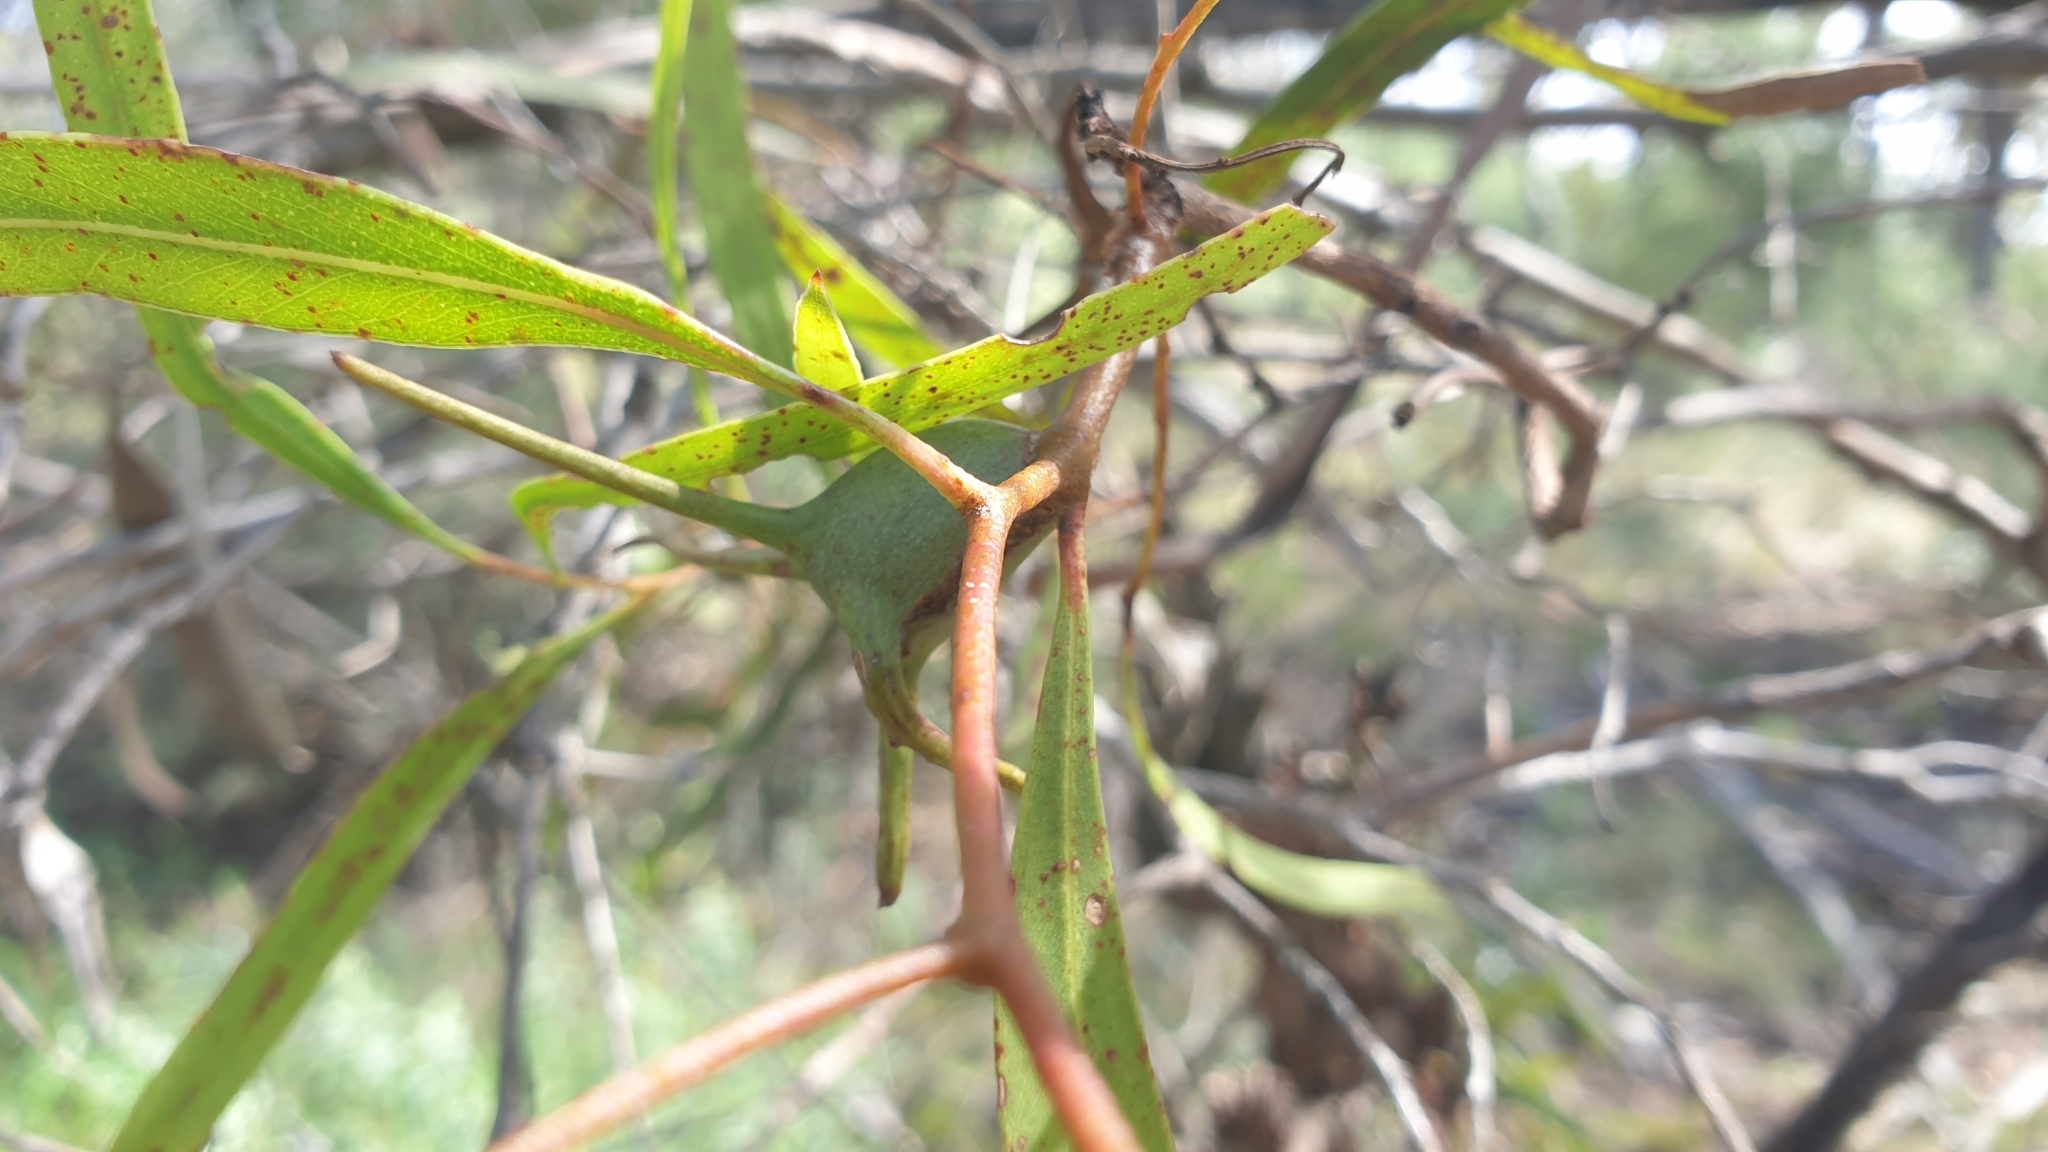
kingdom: Animalia
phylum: Arthropoda
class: Insecta
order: Hemiptera
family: Eriococcidae
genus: Apiomorpha
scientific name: Apiomorpha munita
